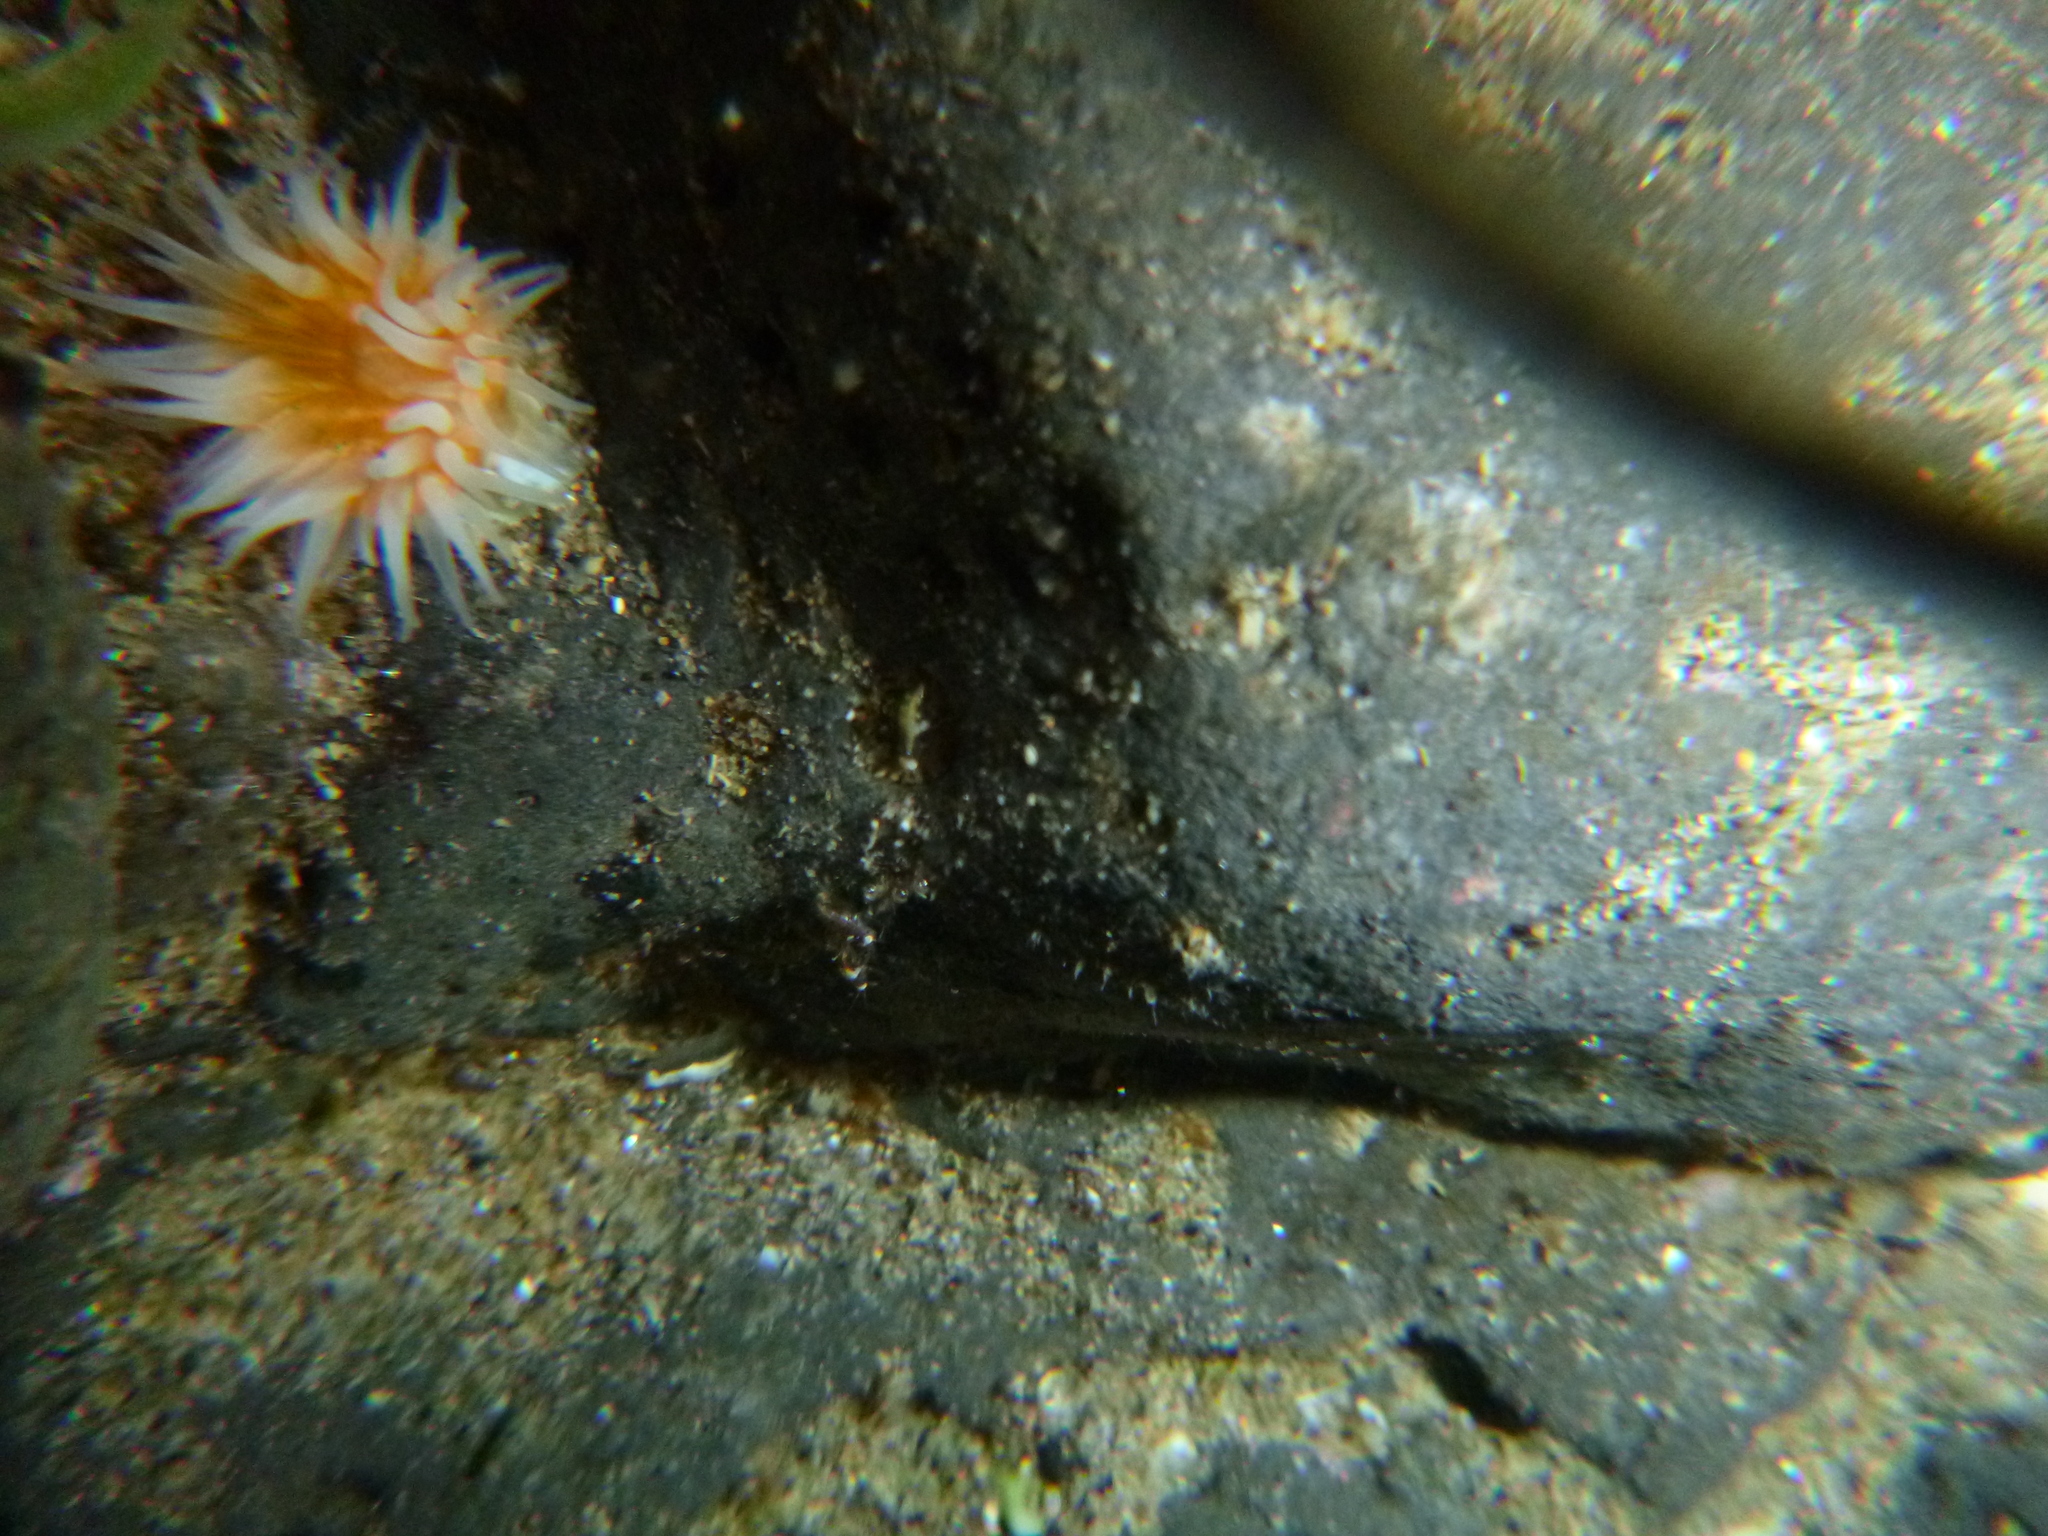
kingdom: Animalia
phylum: Cnidaria
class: Anthozoa
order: Actiniaria
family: Sagartiidae
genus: Anthothoe
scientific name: Anthothoe albocincta
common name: Orange striped anemone
